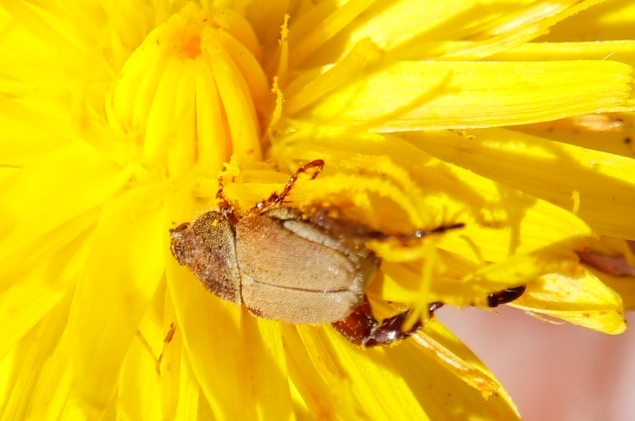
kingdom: Plantae
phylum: Tracheophyta
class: Magnoliopsida
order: Asterales
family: Asteraceae
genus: Hypochaeris
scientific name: Hypochaeris radicata
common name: Flatweed
